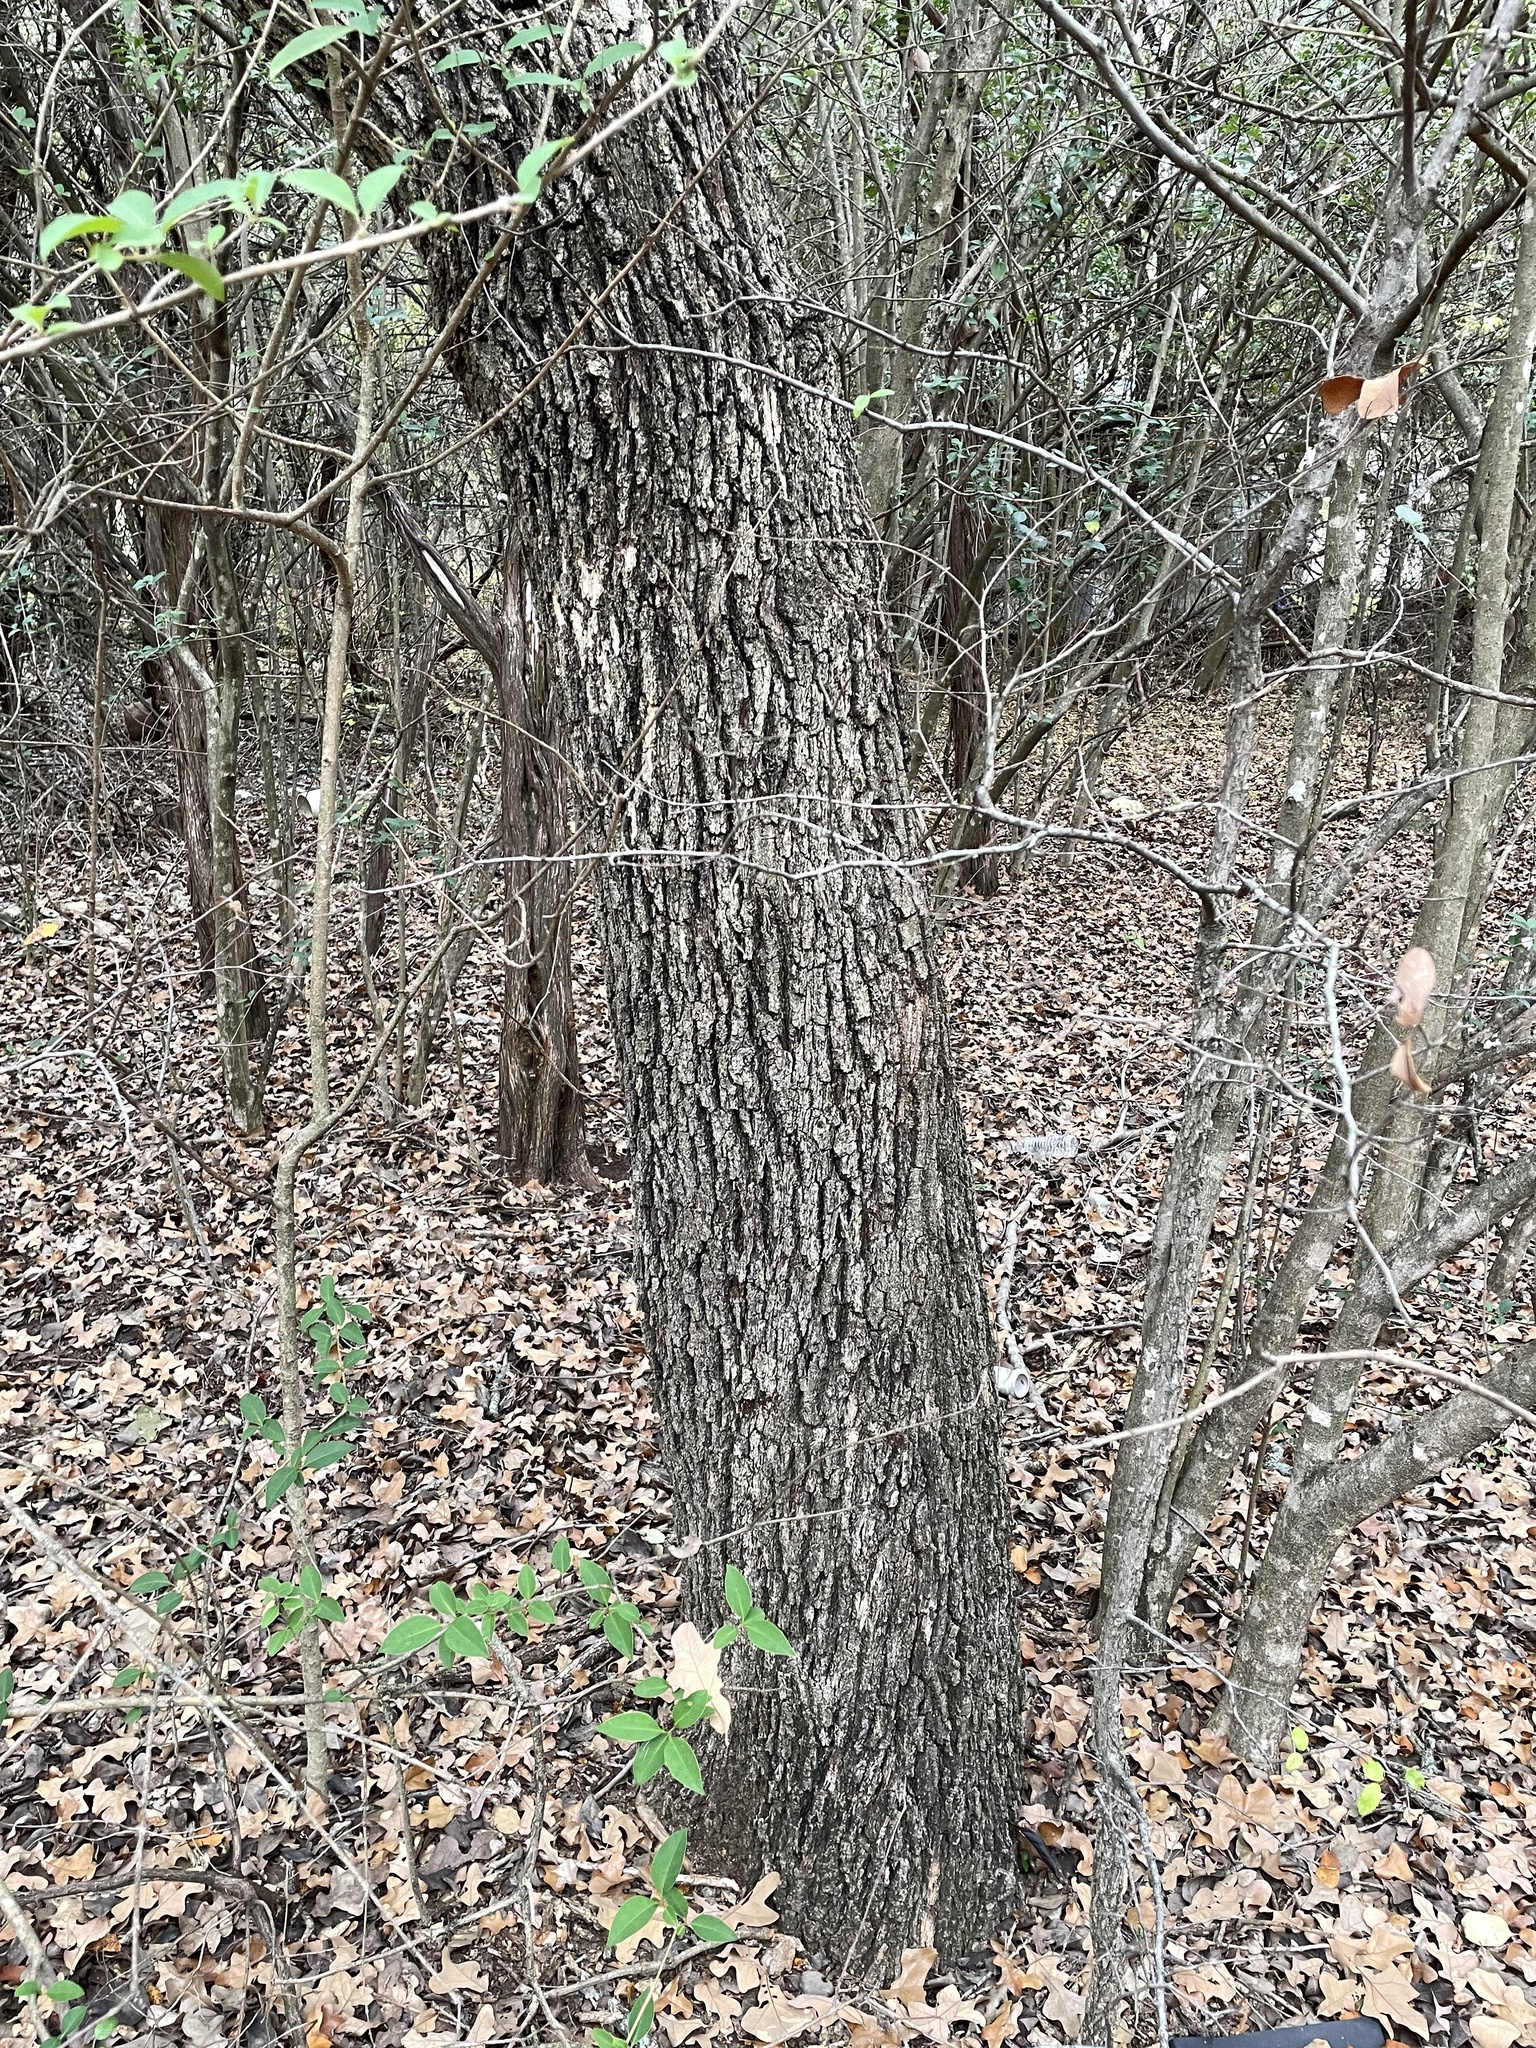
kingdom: Plantae
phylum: Tracheophyta
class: Magnoliopsida
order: Fagales
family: Fagaceae
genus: Quercus
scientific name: Quercus stellata
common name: Post oak
